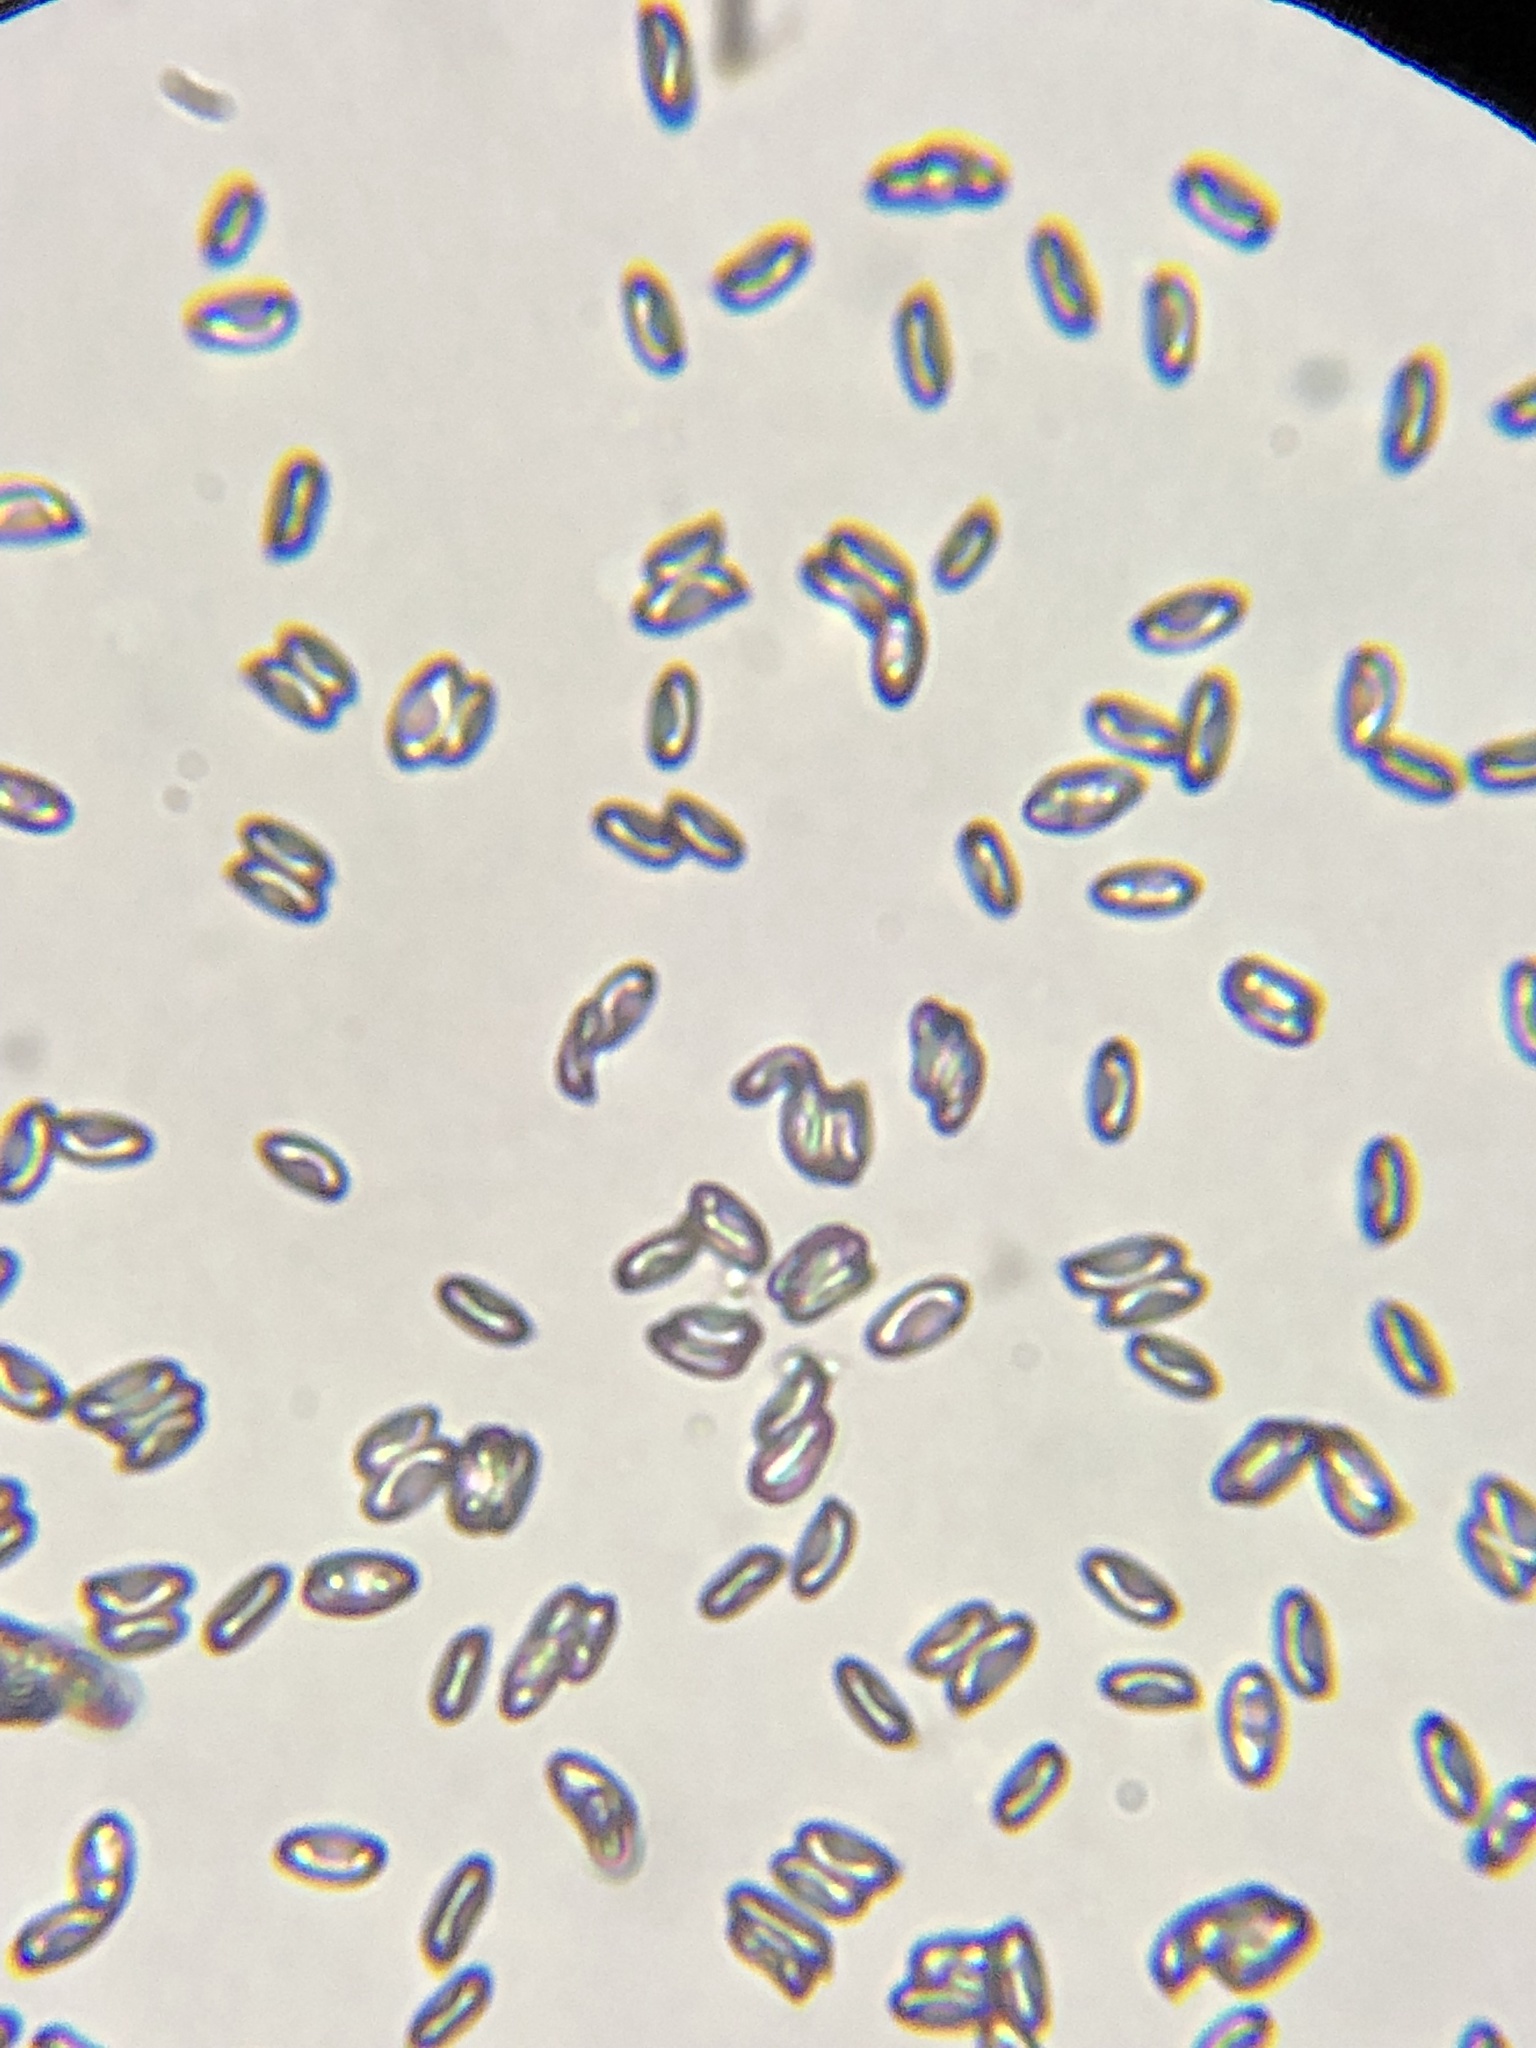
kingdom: Fungi
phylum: Basidiomycota
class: Agaricomycetes
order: Boletales
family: Boletaceae
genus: Tylopilus
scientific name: Tylopilus plumbeoviolaceus
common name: Violet gray bolete
